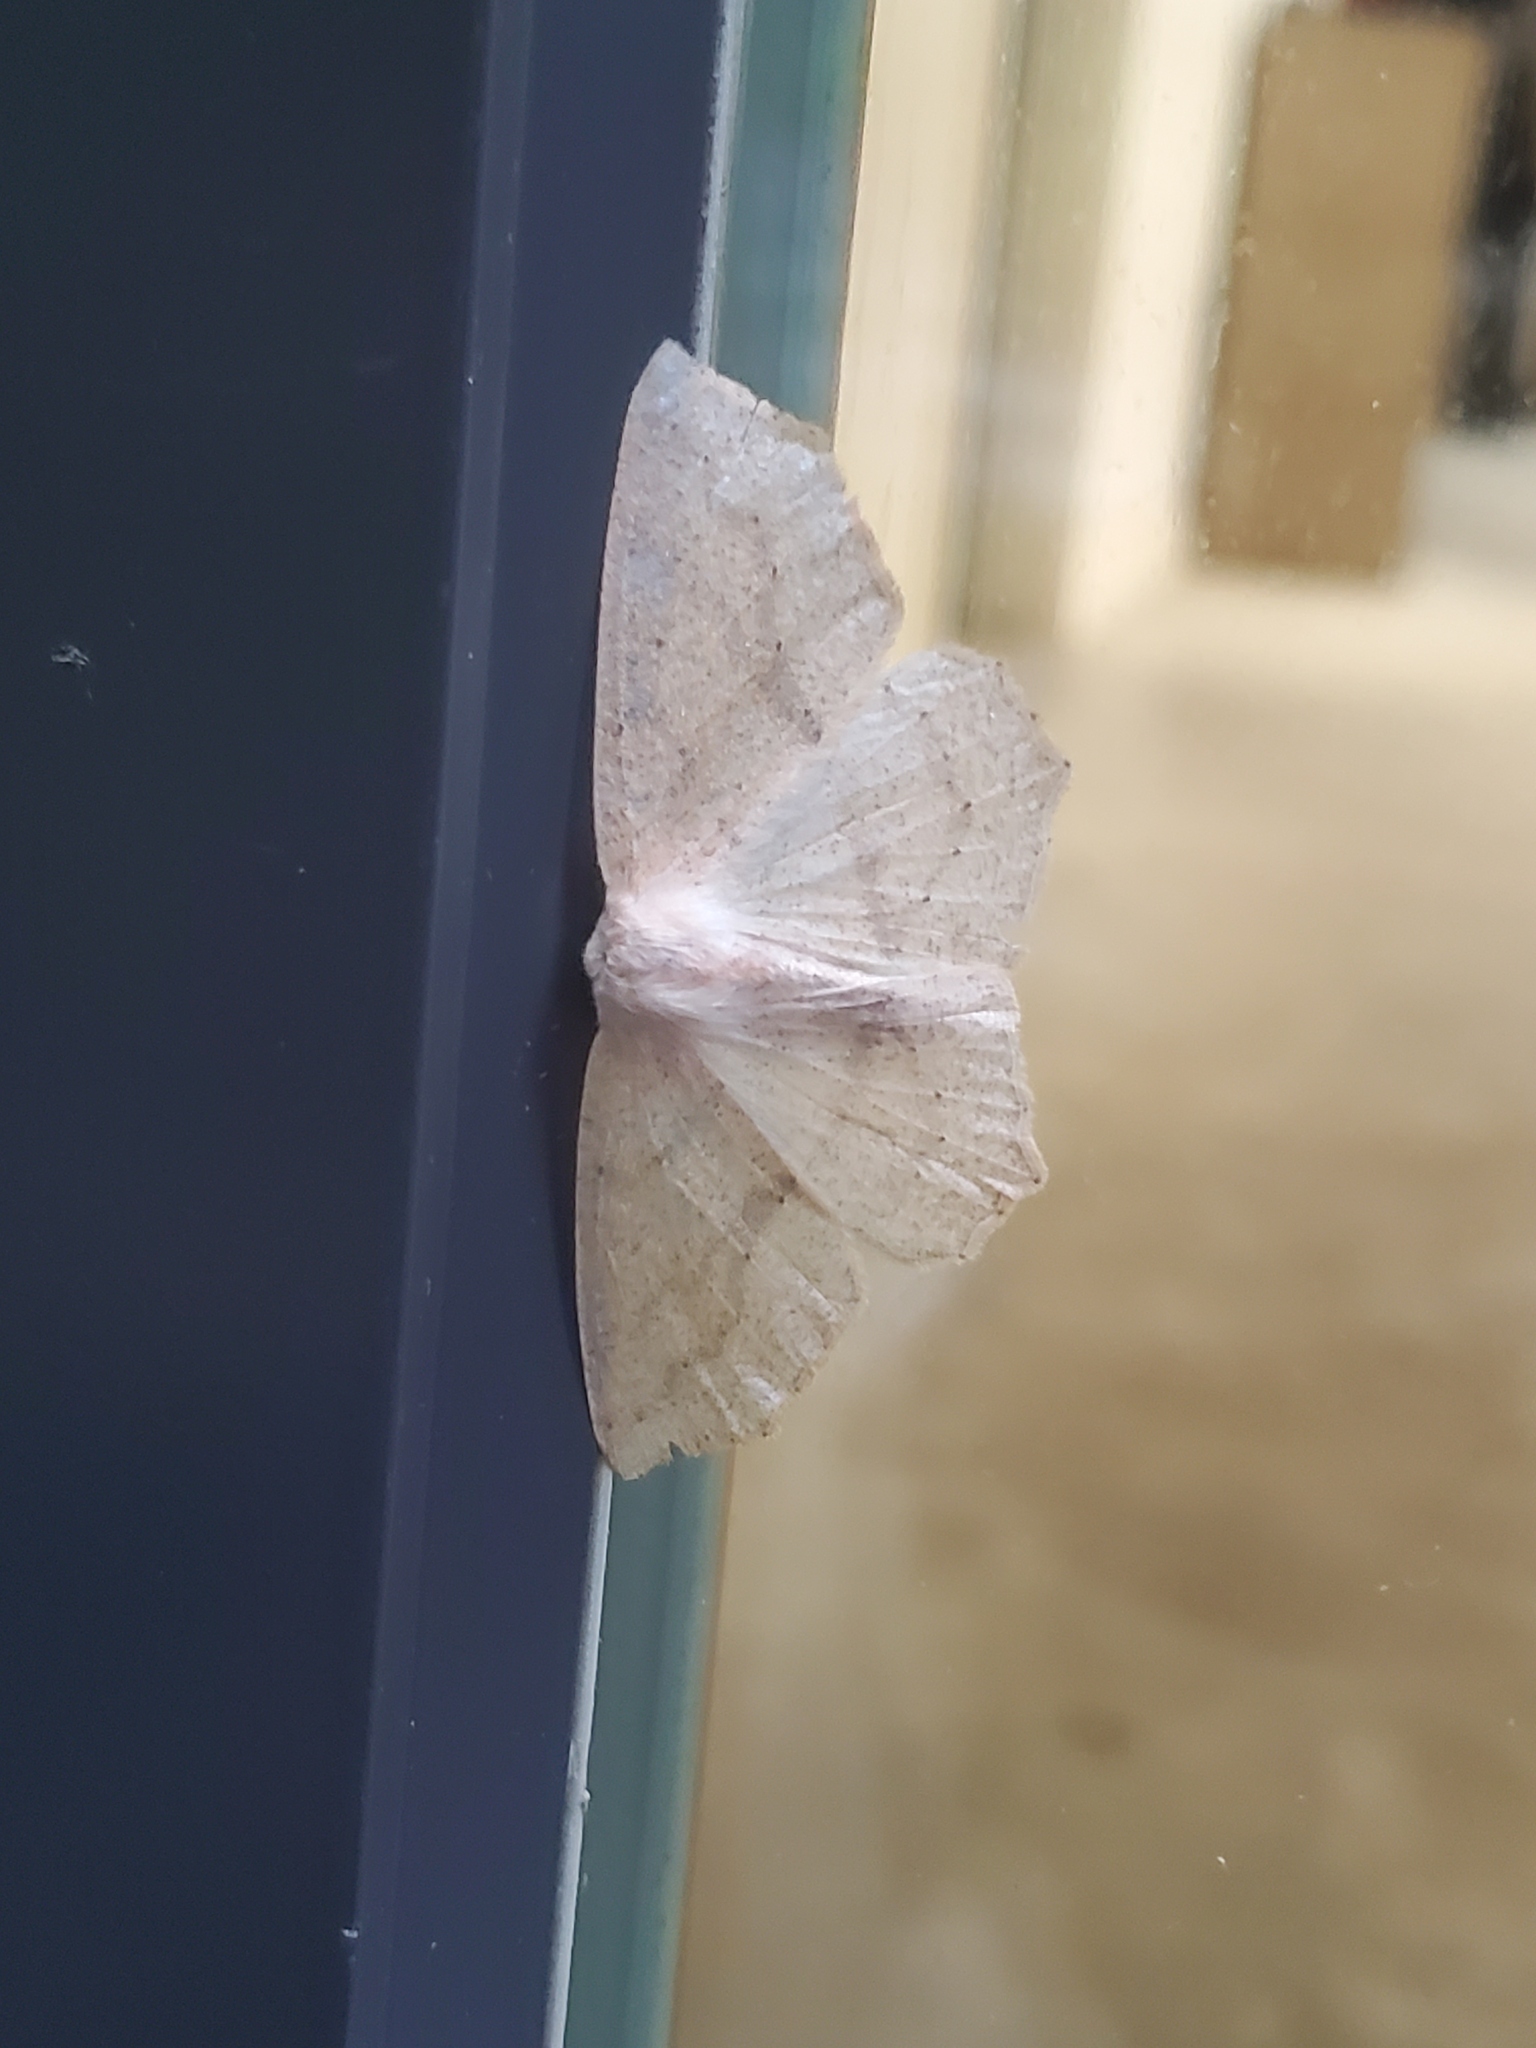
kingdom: Animalia
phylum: Arthropoda
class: Insecta
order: Lepidoptera
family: Geometridae
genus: Sabulodes
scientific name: Sabulodes aegrotata
